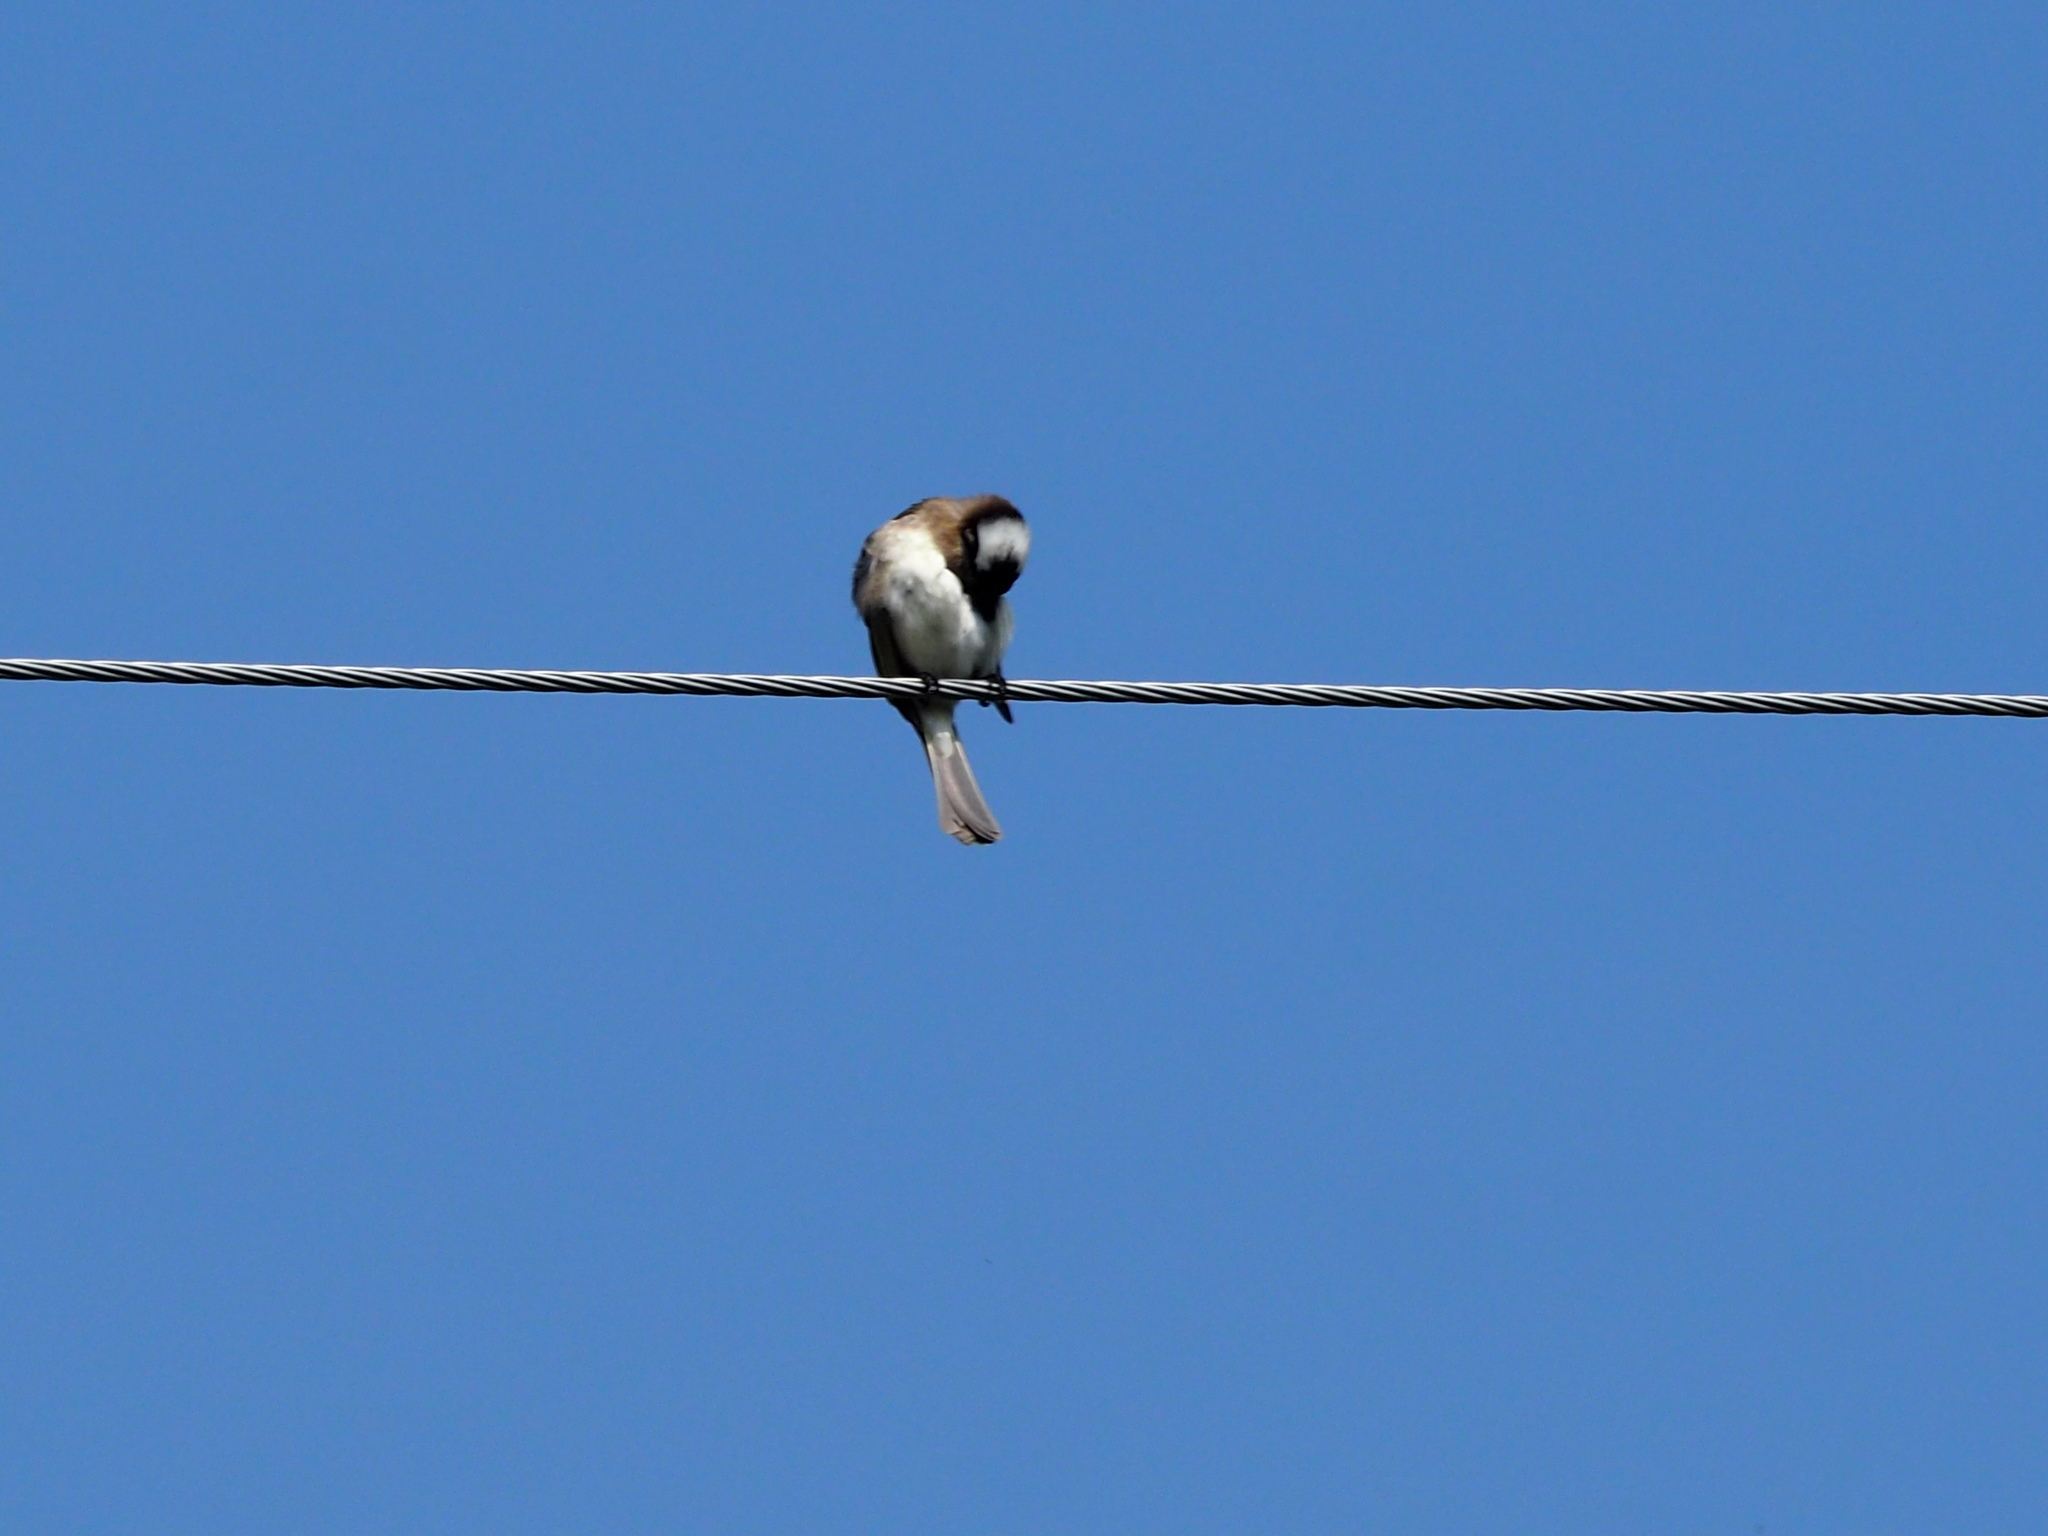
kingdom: Animalia
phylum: Chordata
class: Aves
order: Passeriformes
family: Pycnonotidae
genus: Pycnonotus
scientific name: Pycnonotus sinensis
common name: Light-vented bulbul
